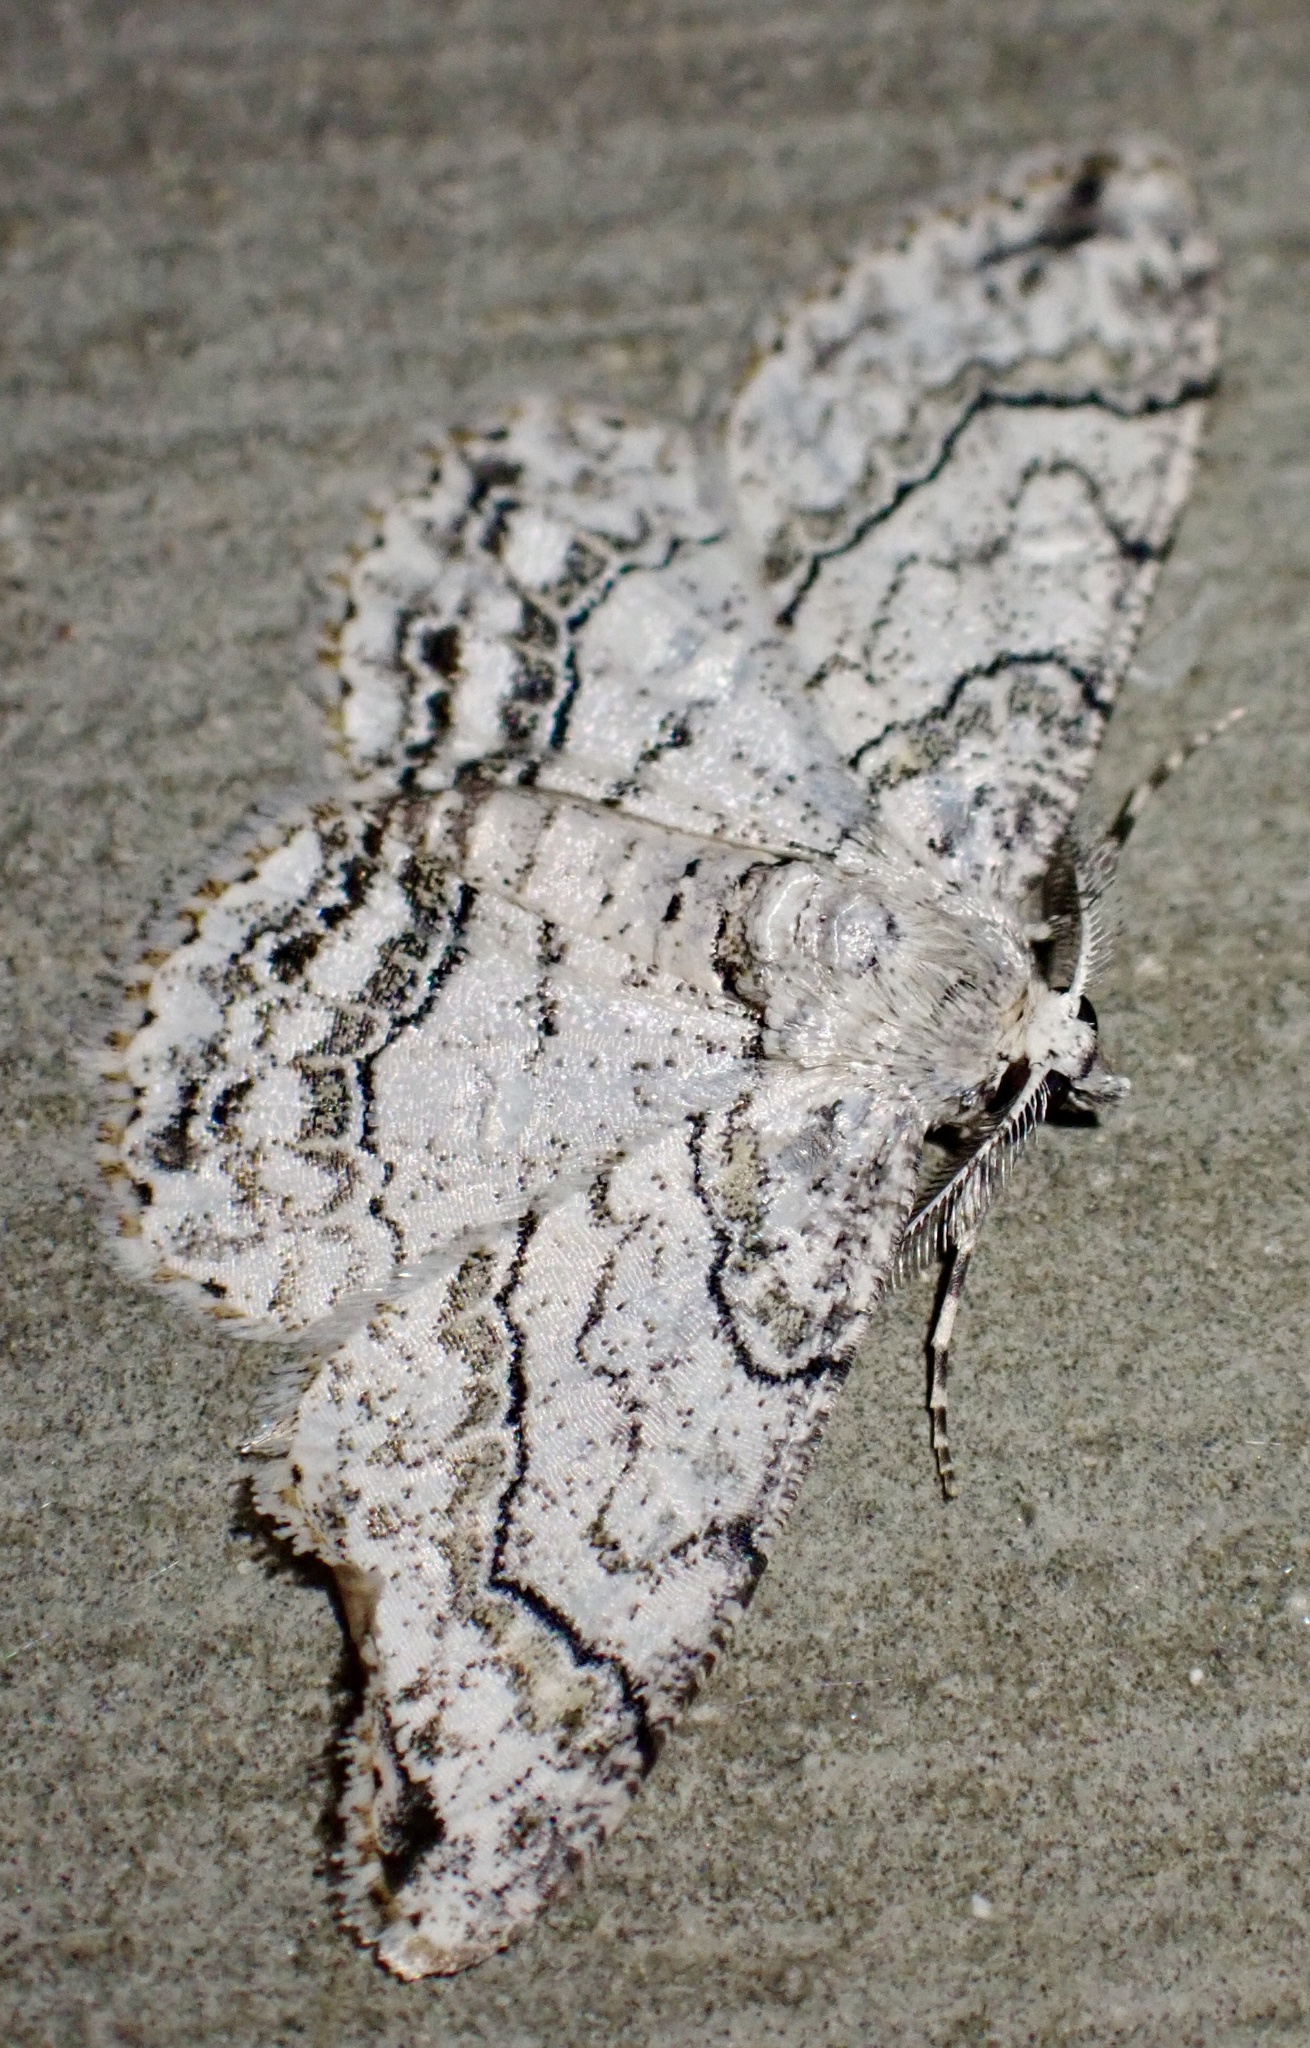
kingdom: Animalia
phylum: Arthropoda
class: Insecta
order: Lepidoptera
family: Geometridae
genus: Cleora
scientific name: Cleora compectinata
